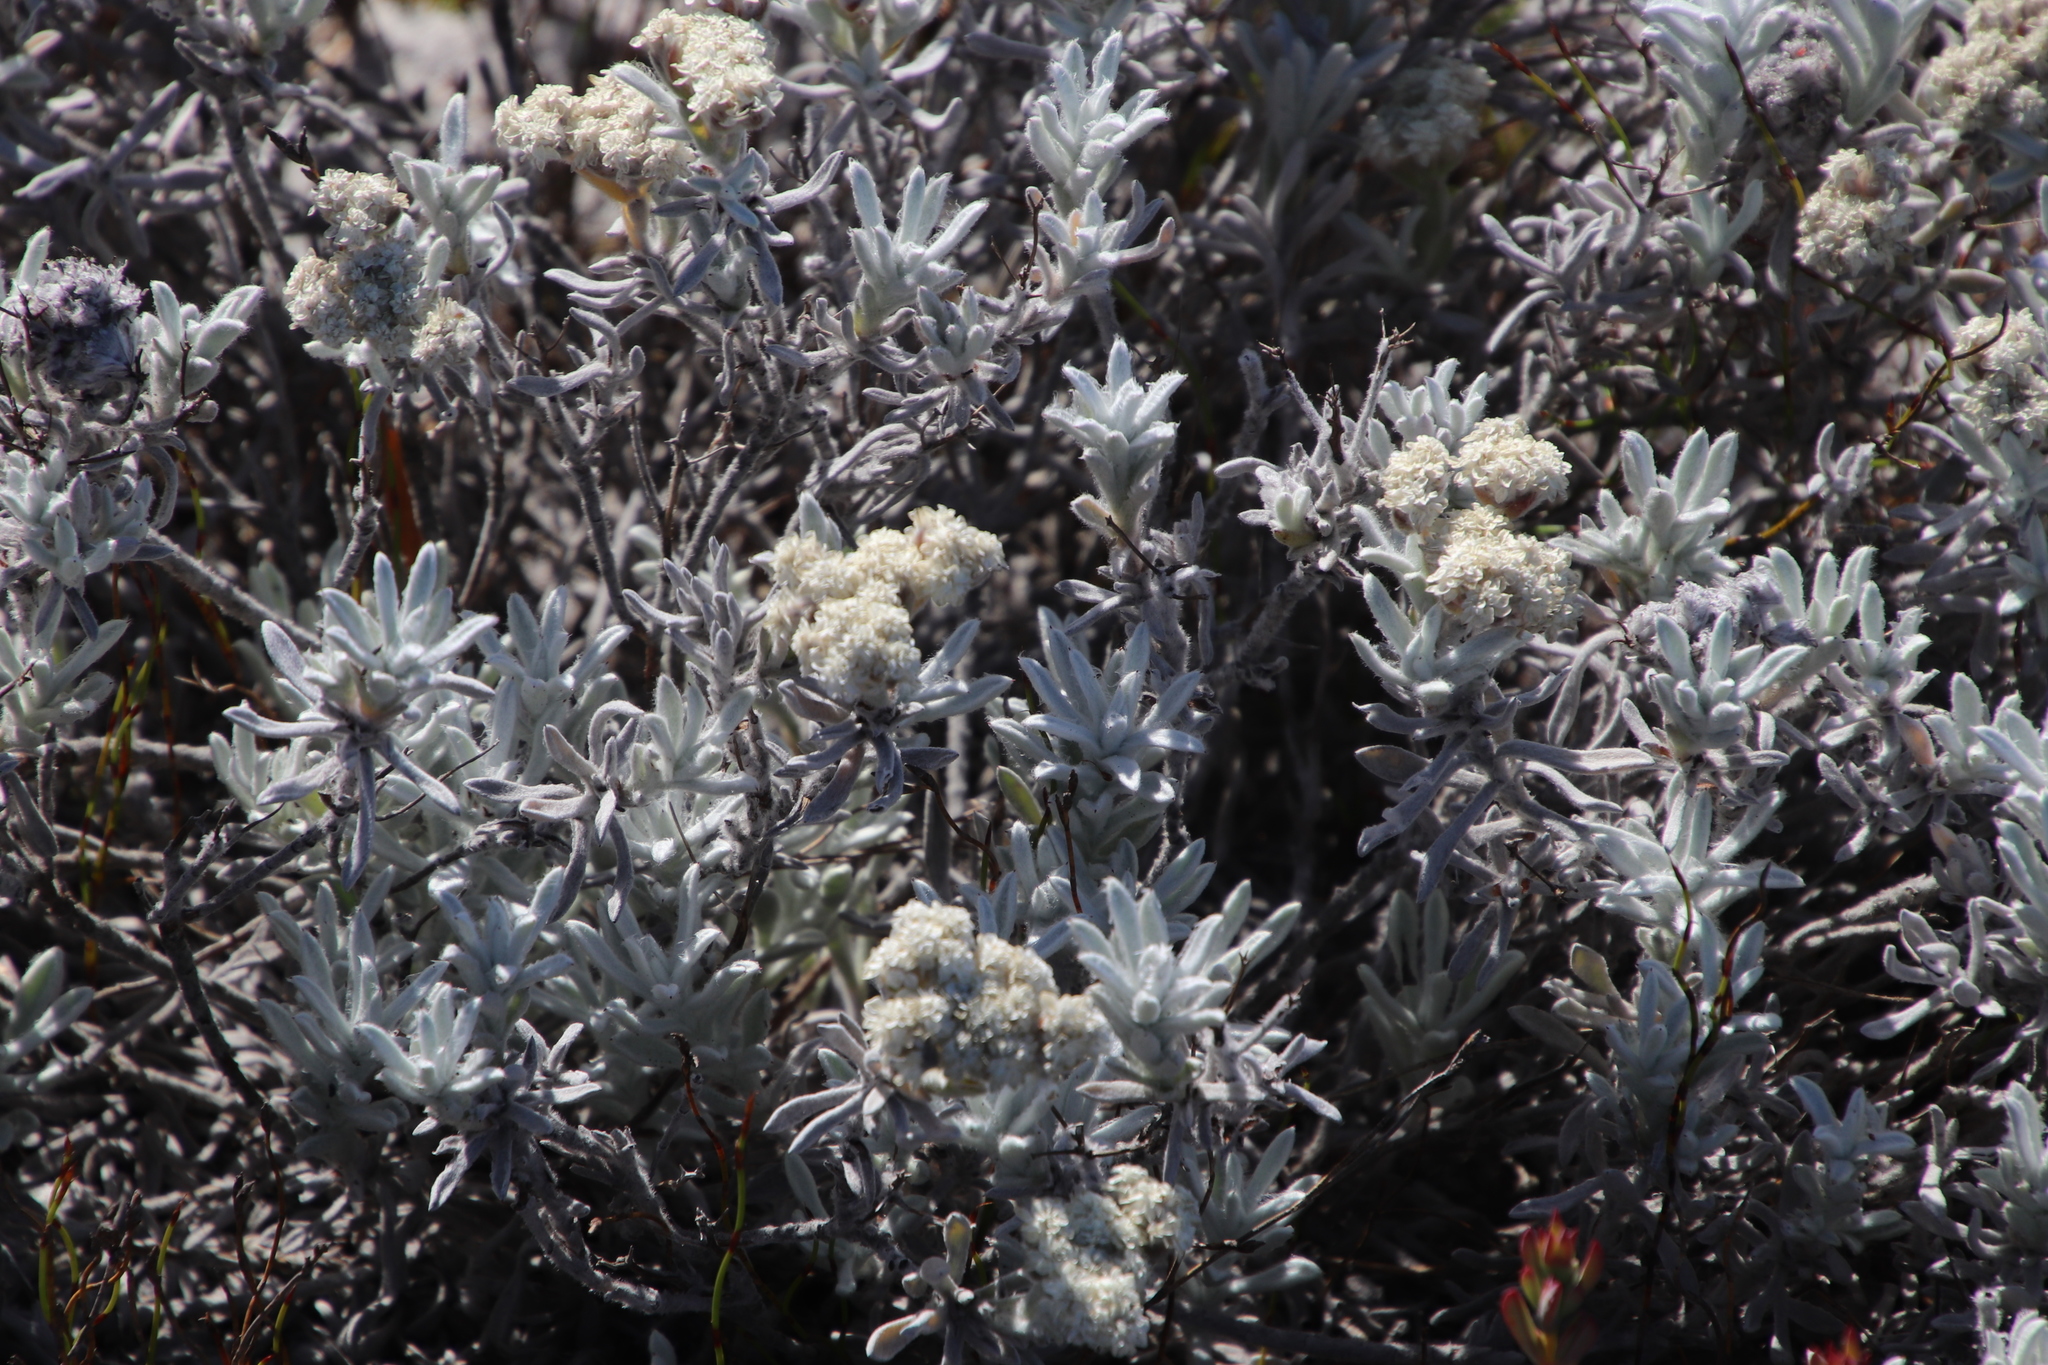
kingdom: Plantae
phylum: Tracheophyta
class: Magnoliopsida
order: Asterales
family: Asteraceae
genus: Petalacte
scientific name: Petalacte coronata
